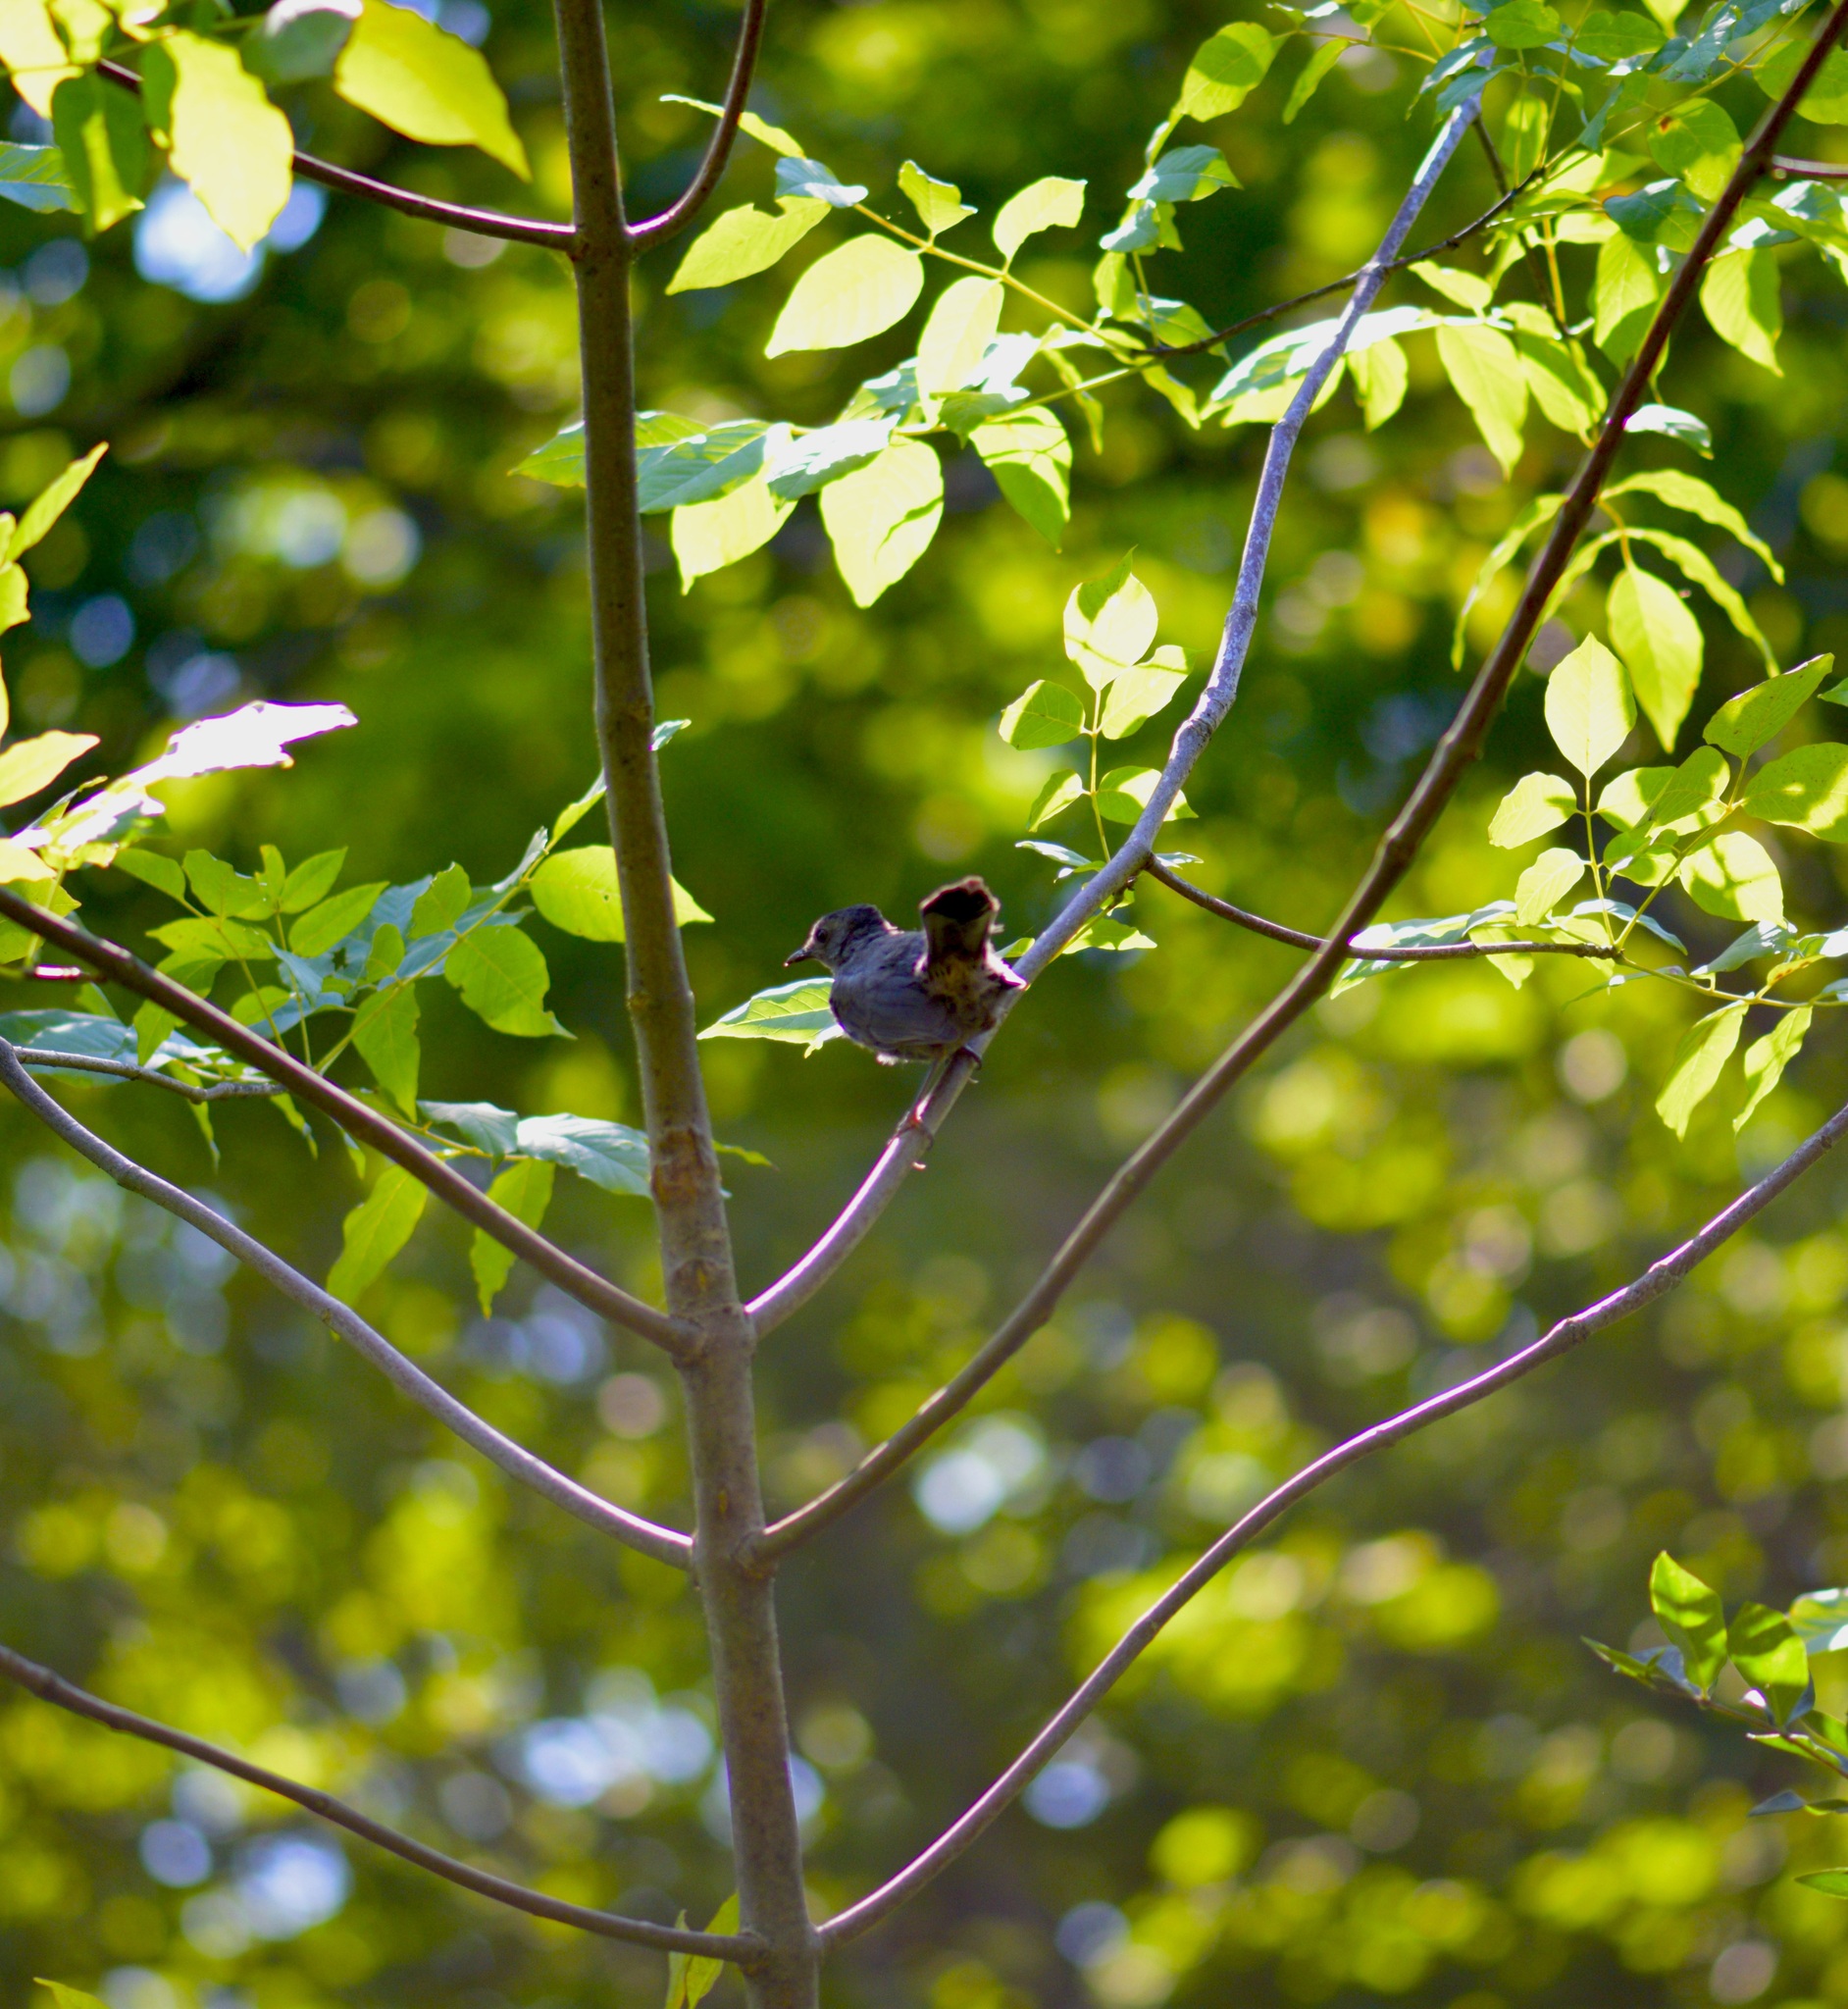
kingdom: Animalia
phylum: Chordata
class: Aves
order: Passeriformes
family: Mimidae
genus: Dumetella
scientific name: Dumetella carolinensis
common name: Gray catbird
